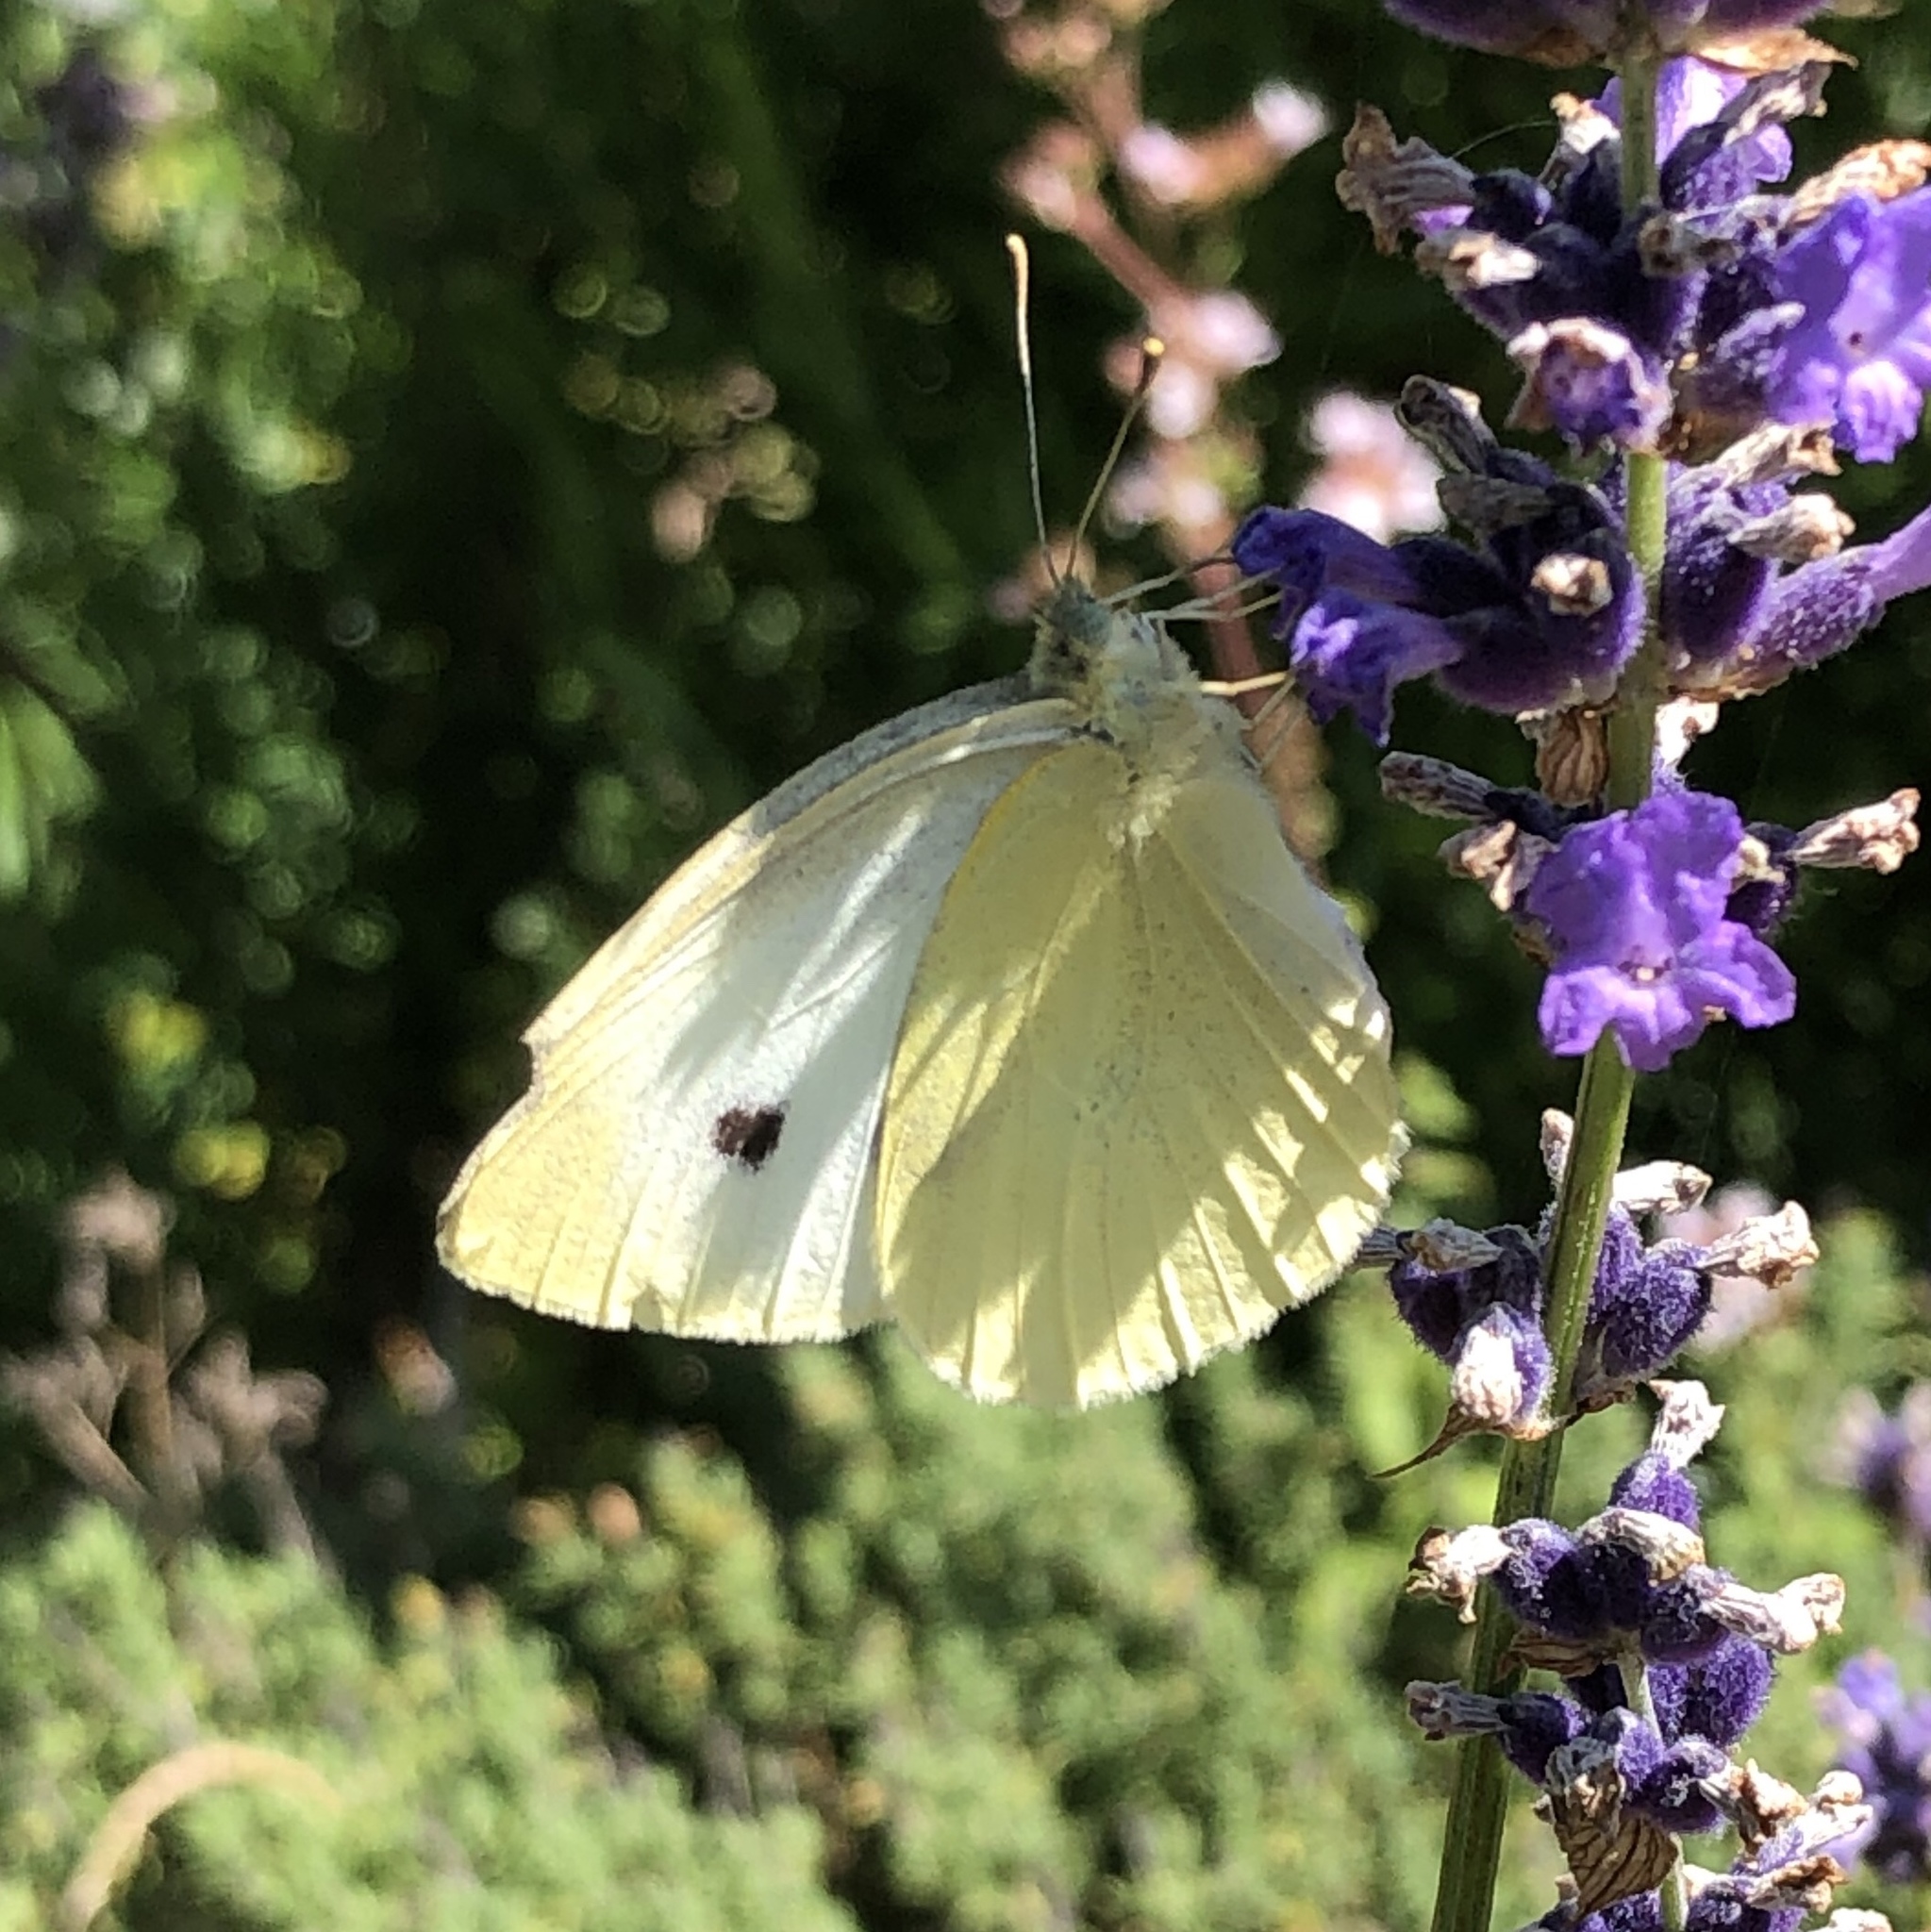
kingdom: Animalia
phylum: Arthropoda
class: Insecta
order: Lepidoptera
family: Pieridae
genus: Pieris
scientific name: Pieris rapae
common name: Small white
